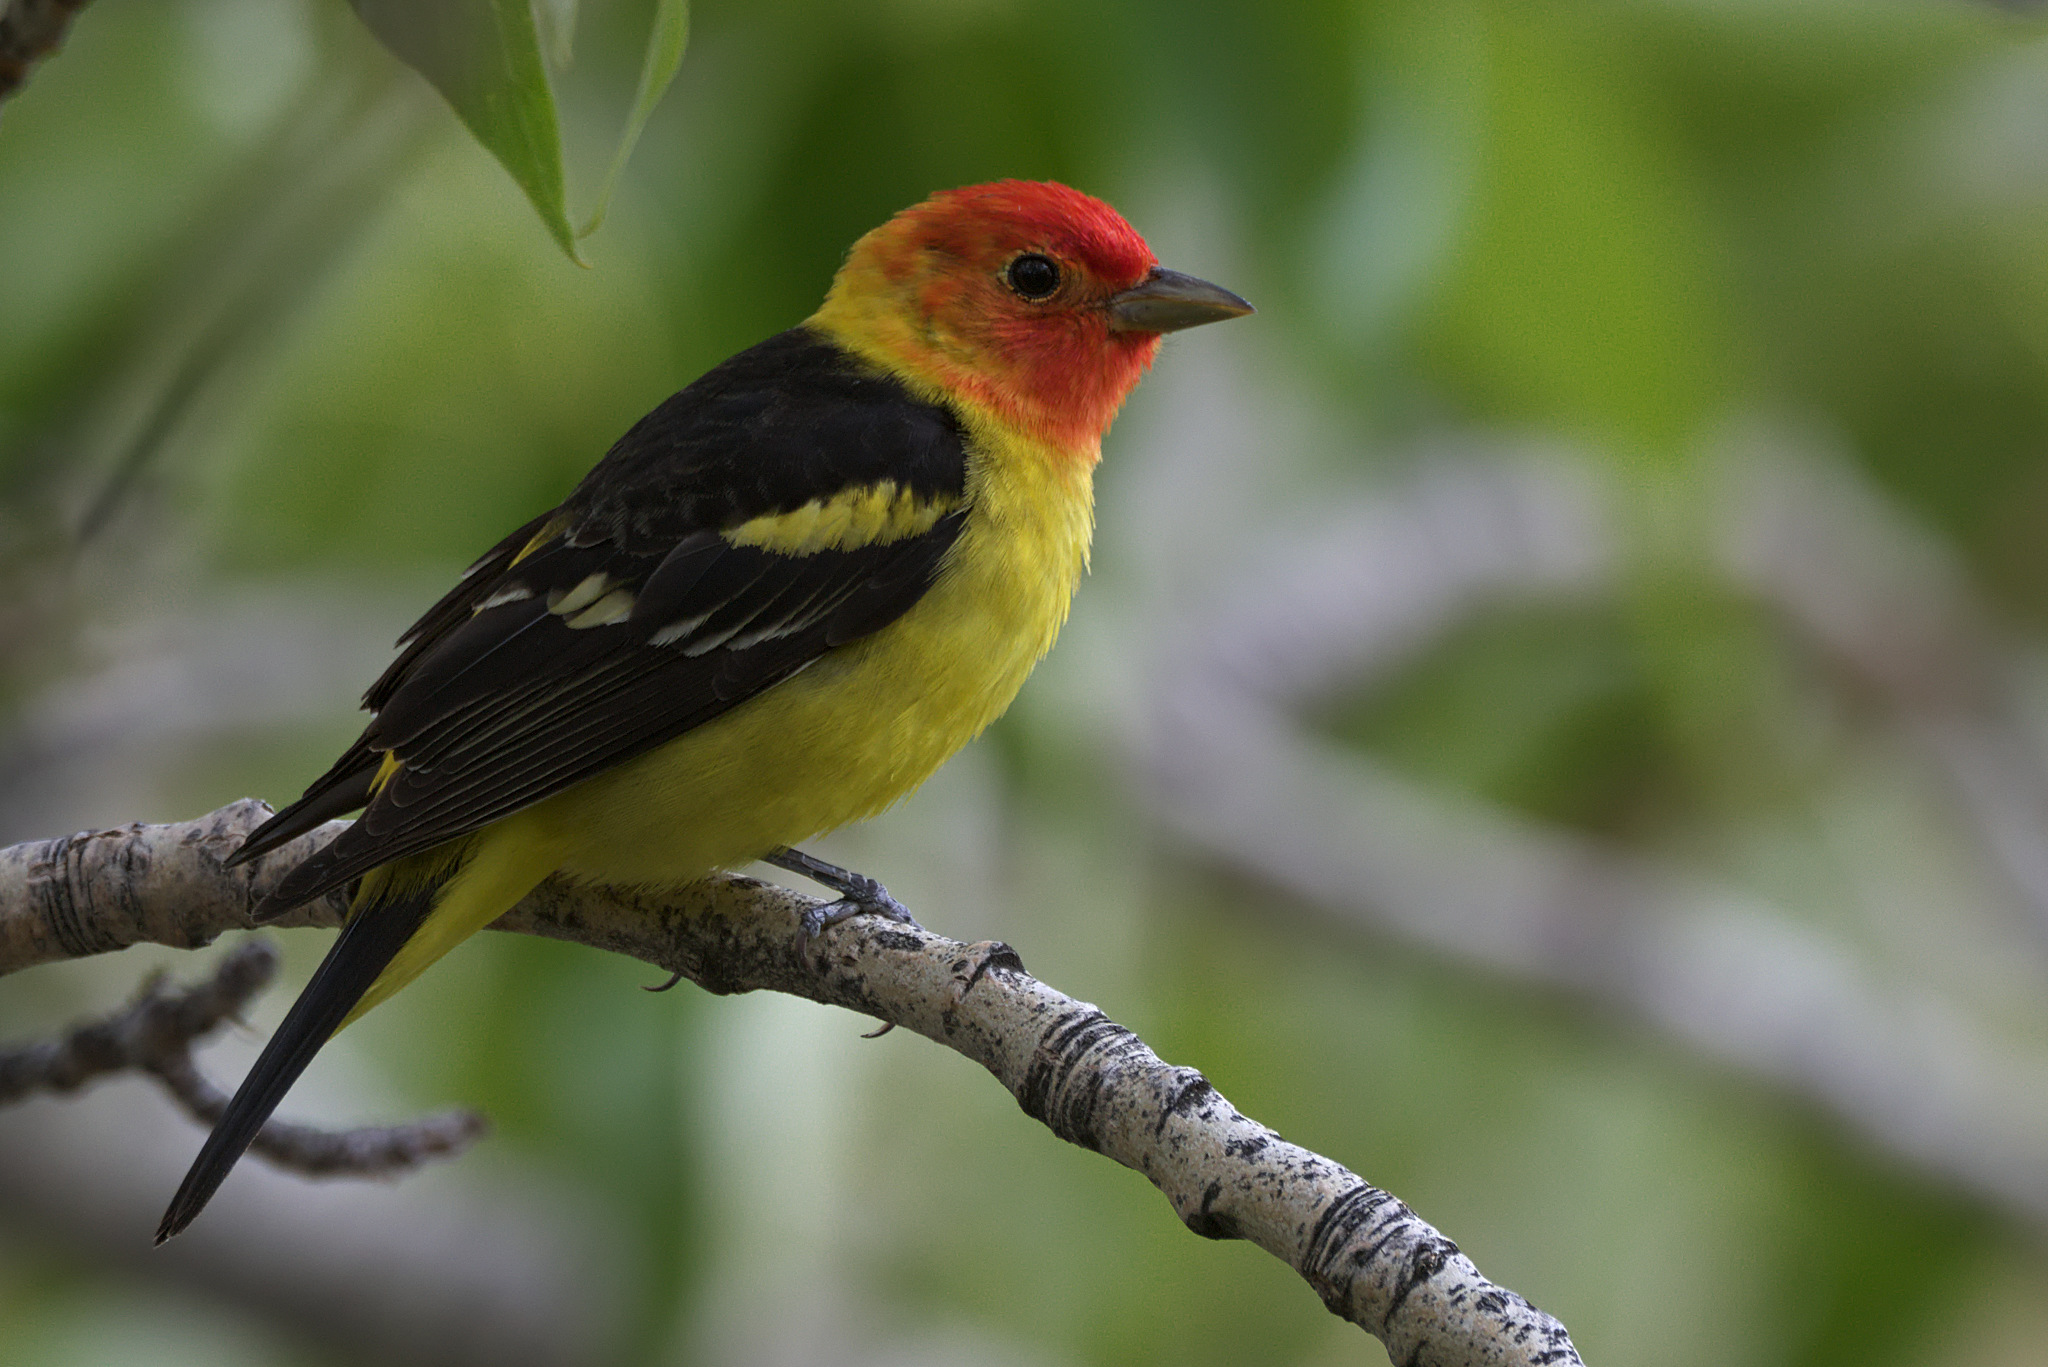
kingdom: Animalia
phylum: Chordata
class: Aves
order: Passeriformes
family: Cardinalidae
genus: Piranga
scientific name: Piranga ludoviciana
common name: Western tanager
